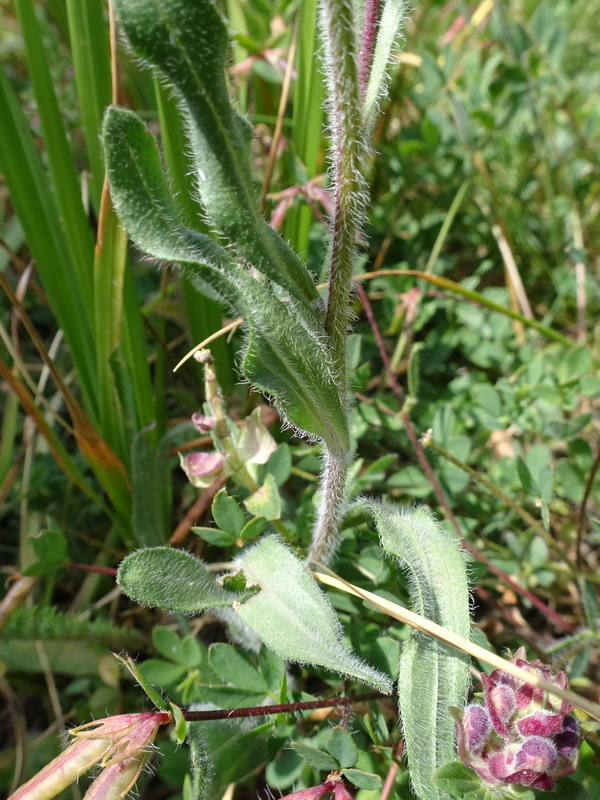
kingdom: Plantae
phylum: Tracheophyta
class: Magnoliopsida
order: Asterales
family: Asteraceae
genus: Erigeron
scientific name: Erigeron acris
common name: Blue fleabane
